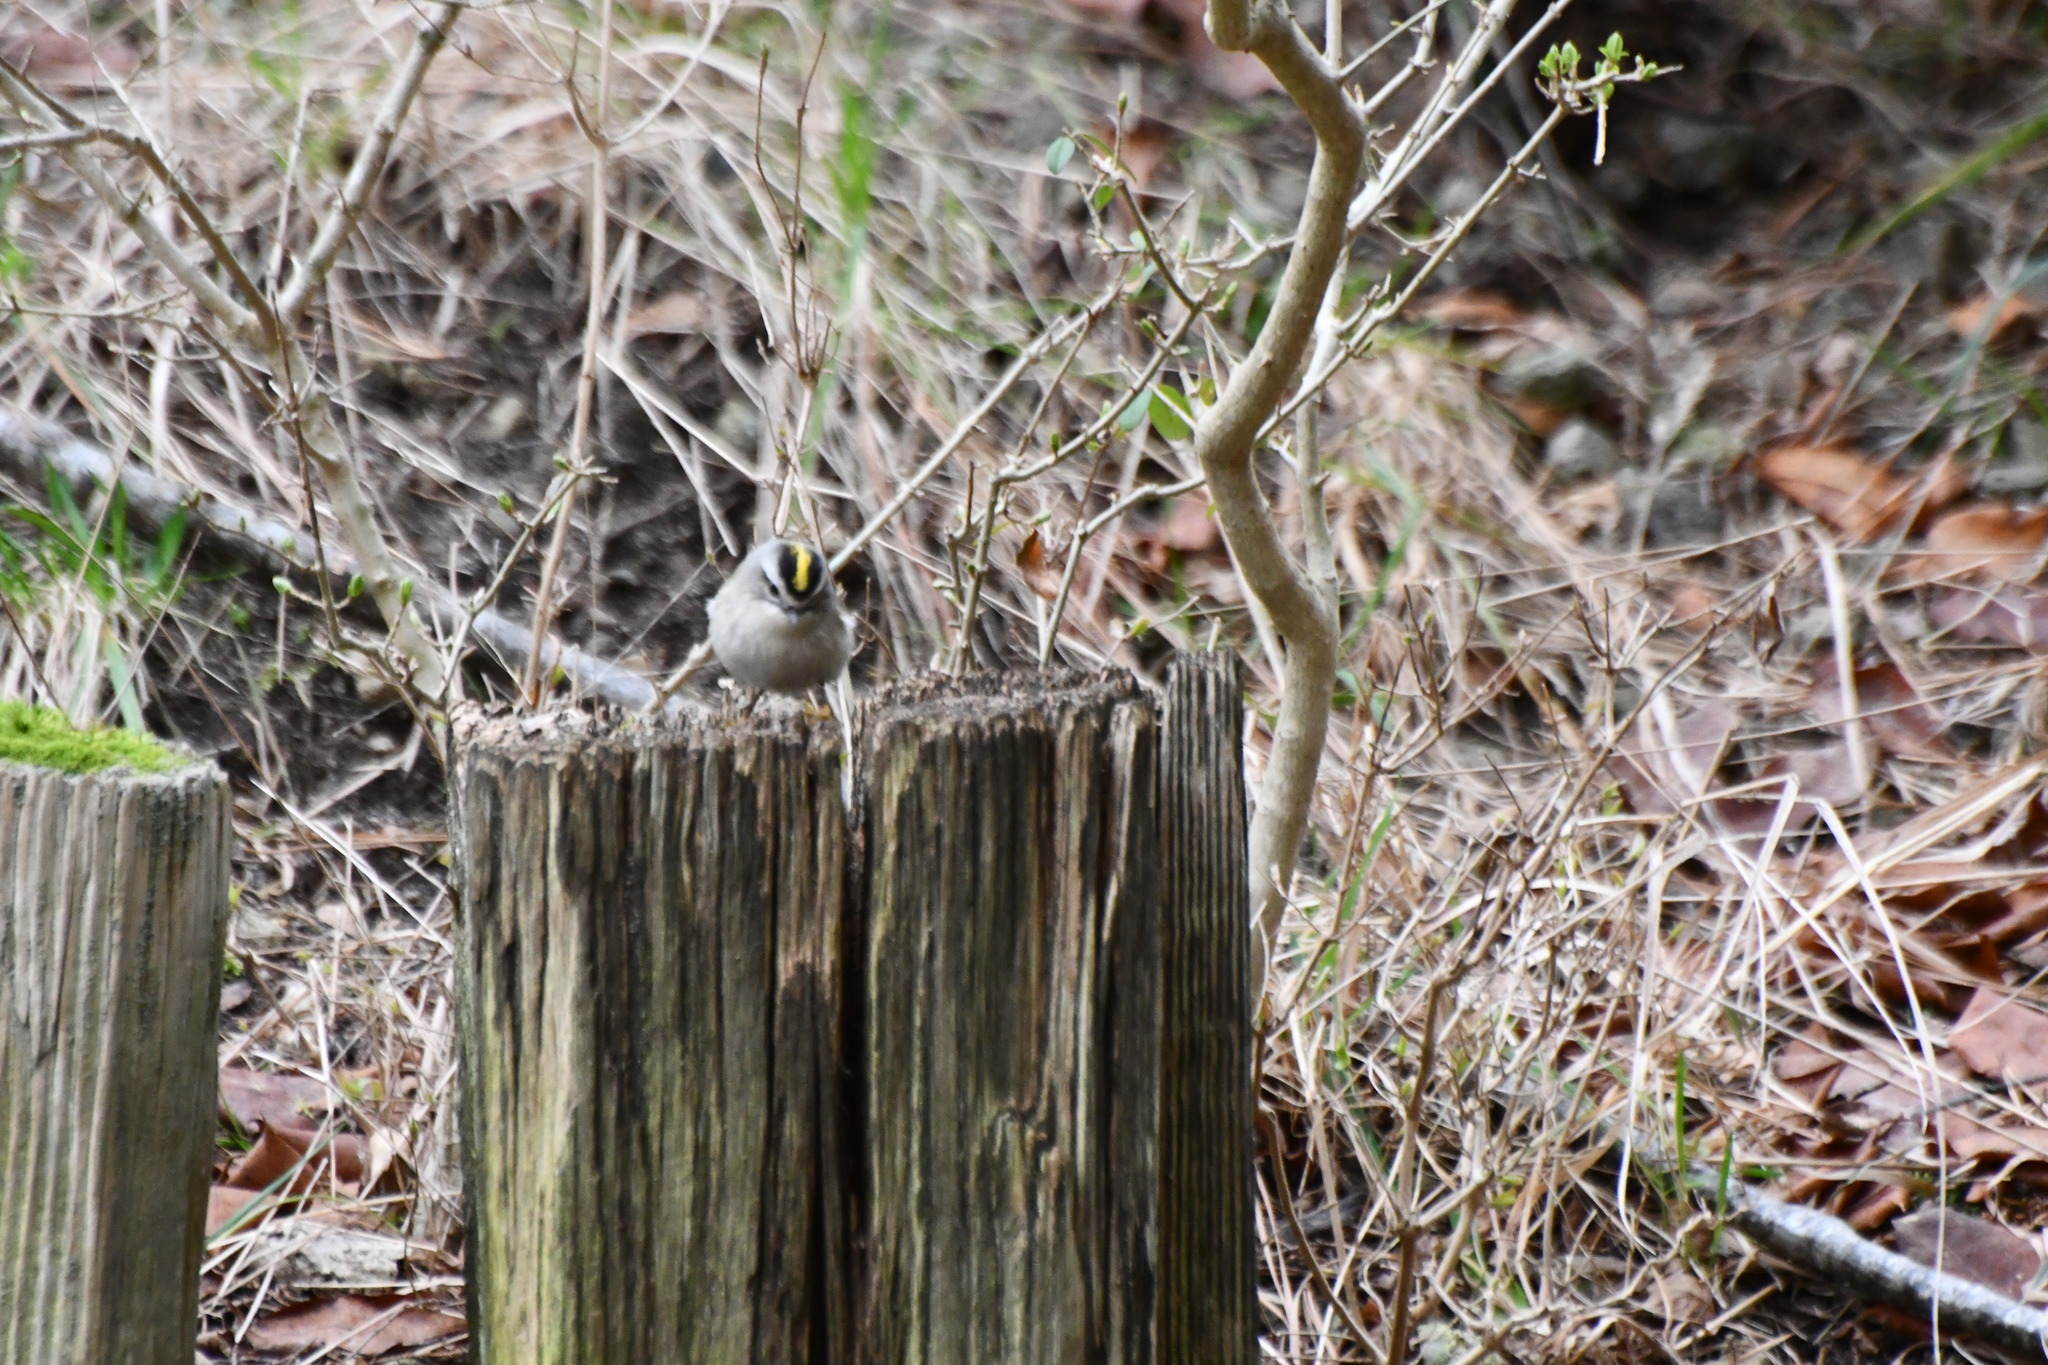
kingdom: Animalia
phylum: Chordata
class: Aves
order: Passeriformes
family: Regulidae
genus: Regulus
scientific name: Regulus satrapa
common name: Golden-crowned kinglet
